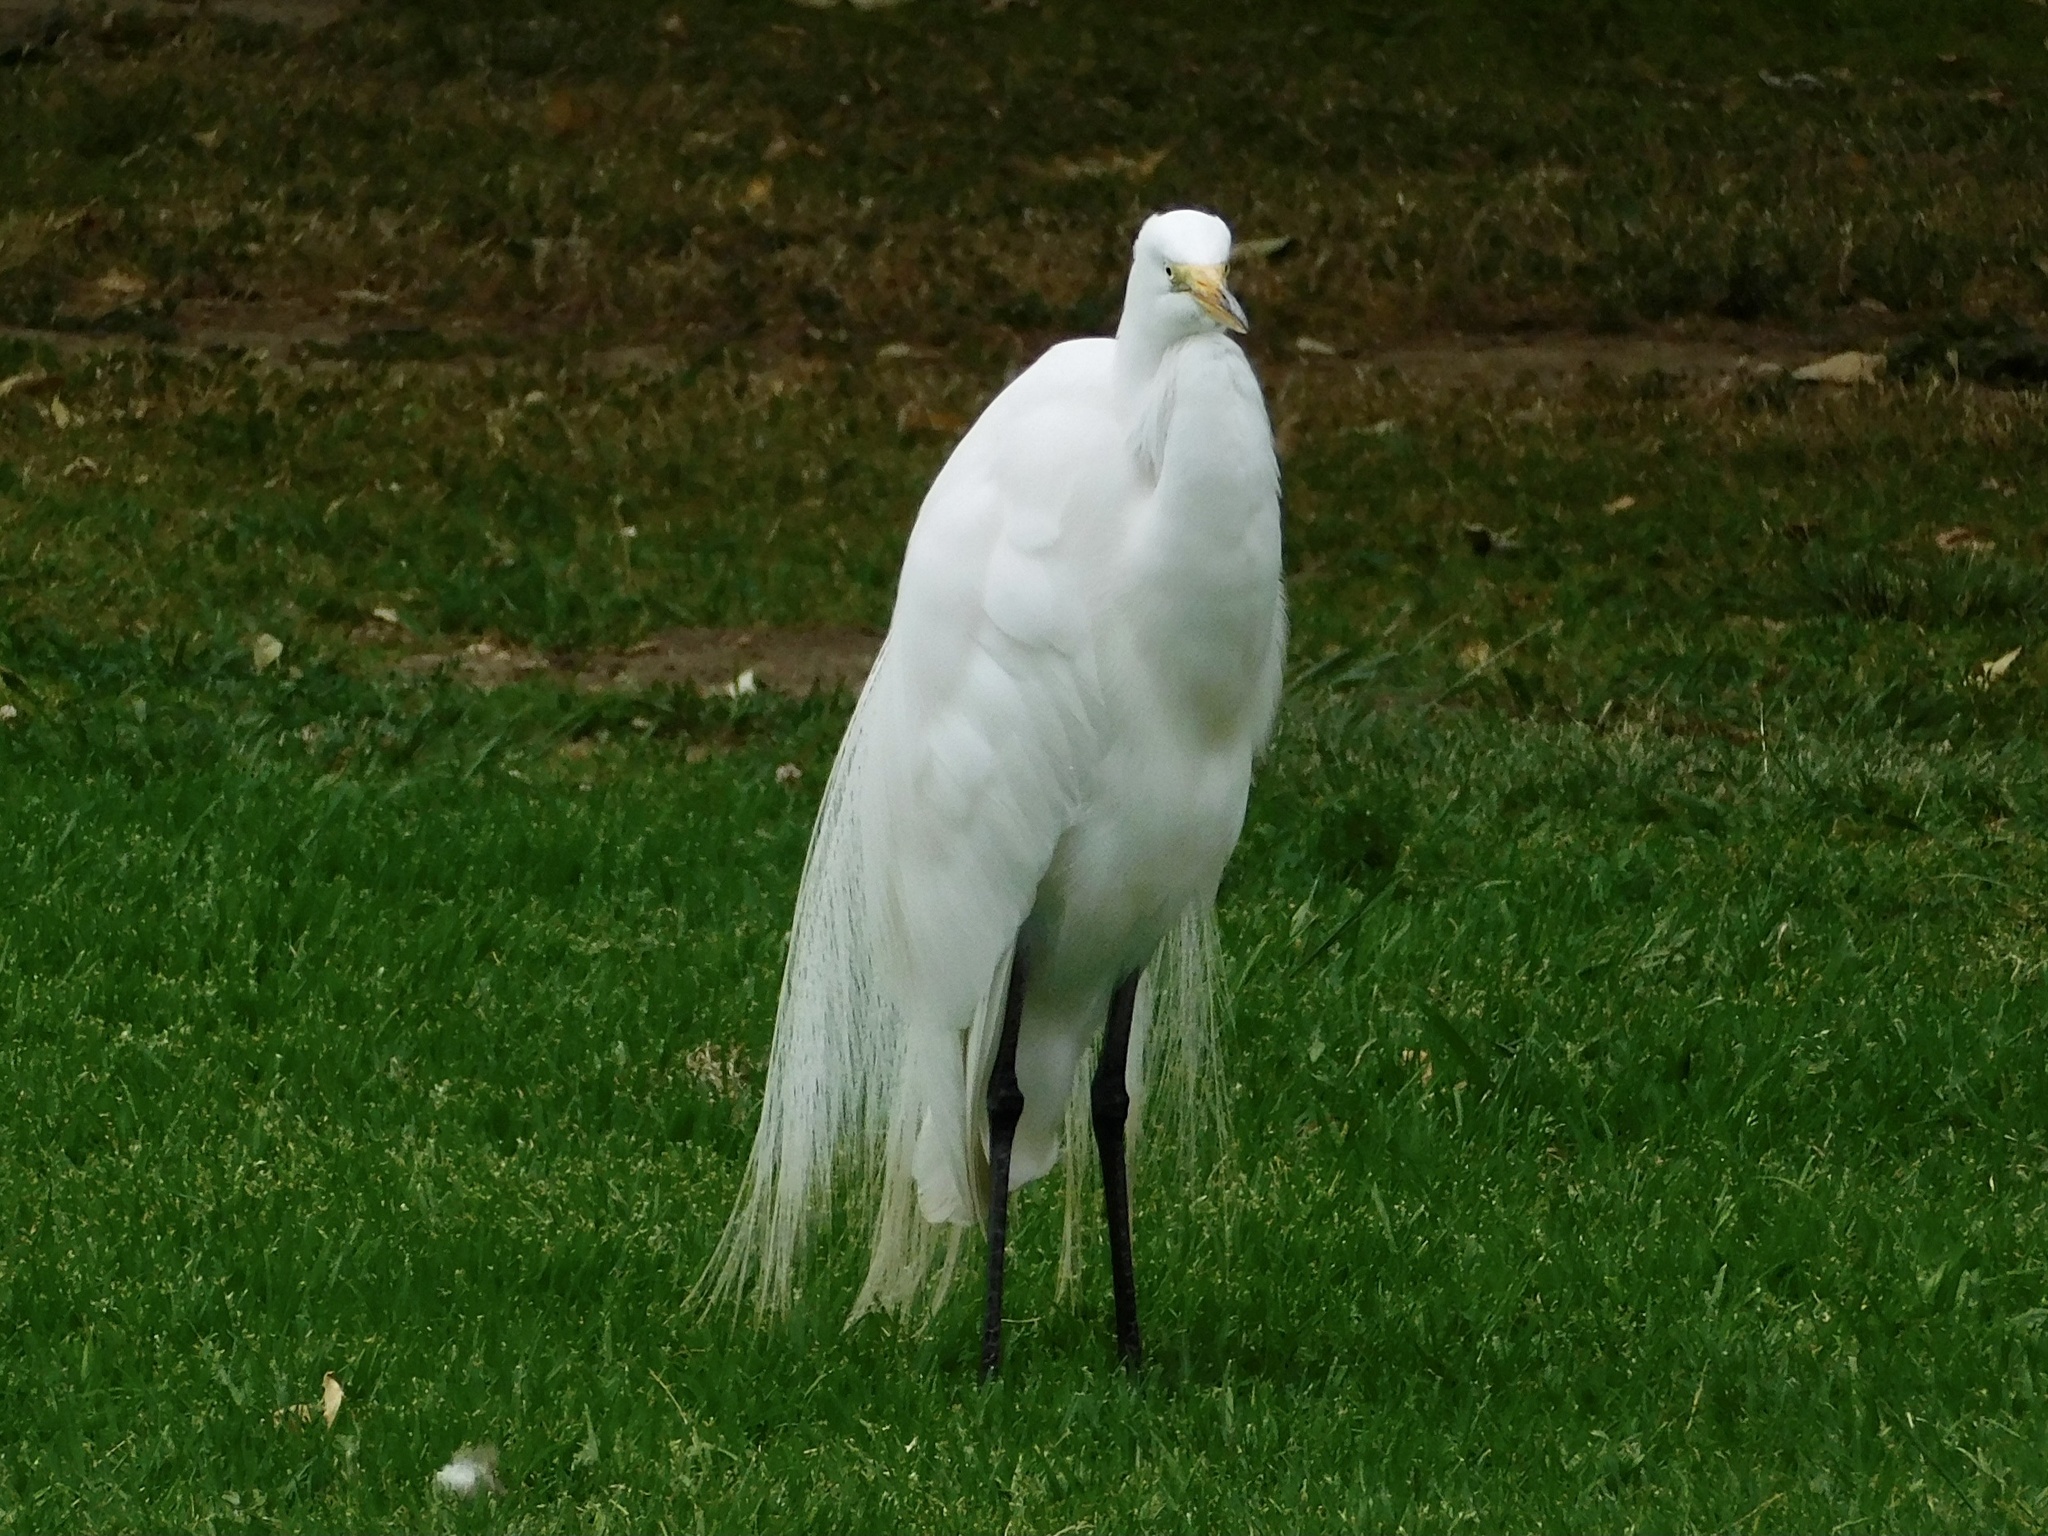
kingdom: Animalia
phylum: Chordata
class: Aves
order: Pelecaniformes
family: Ardeidae
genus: Ardea
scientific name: Ardea alba
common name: Great egret
